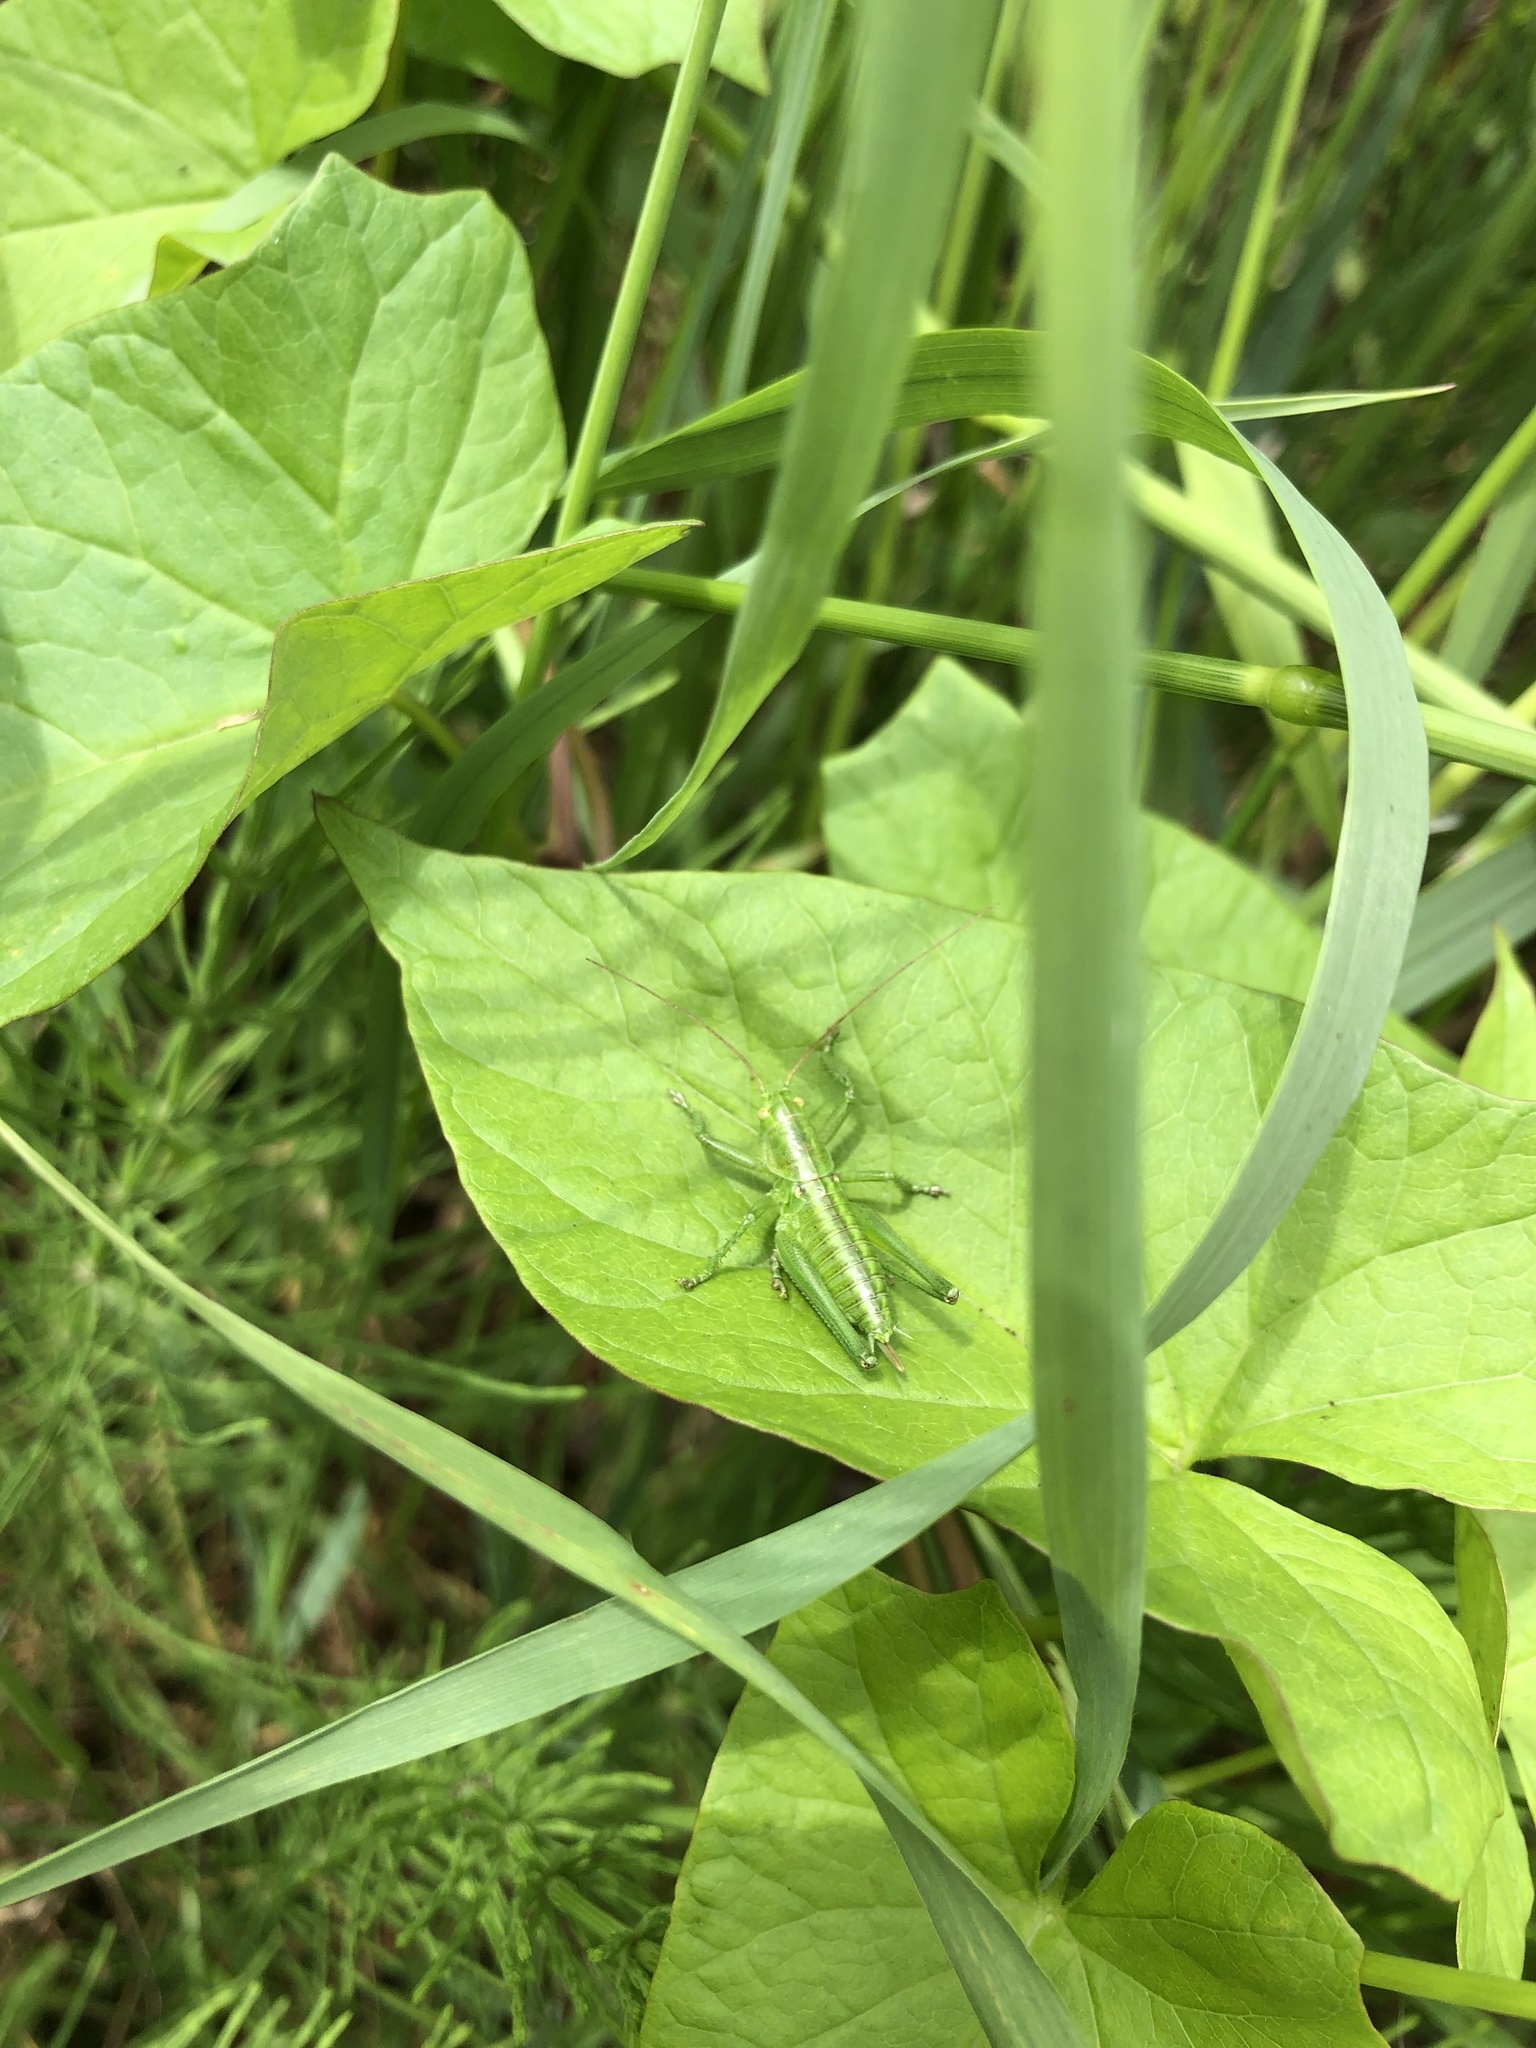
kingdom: Animalia
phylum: Arthropoda
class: Insecta
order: Orthoptera
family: Tettigoniidae
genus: Tettigonia
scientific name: Tettigonia viridissima
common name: Great green bush-cricket
